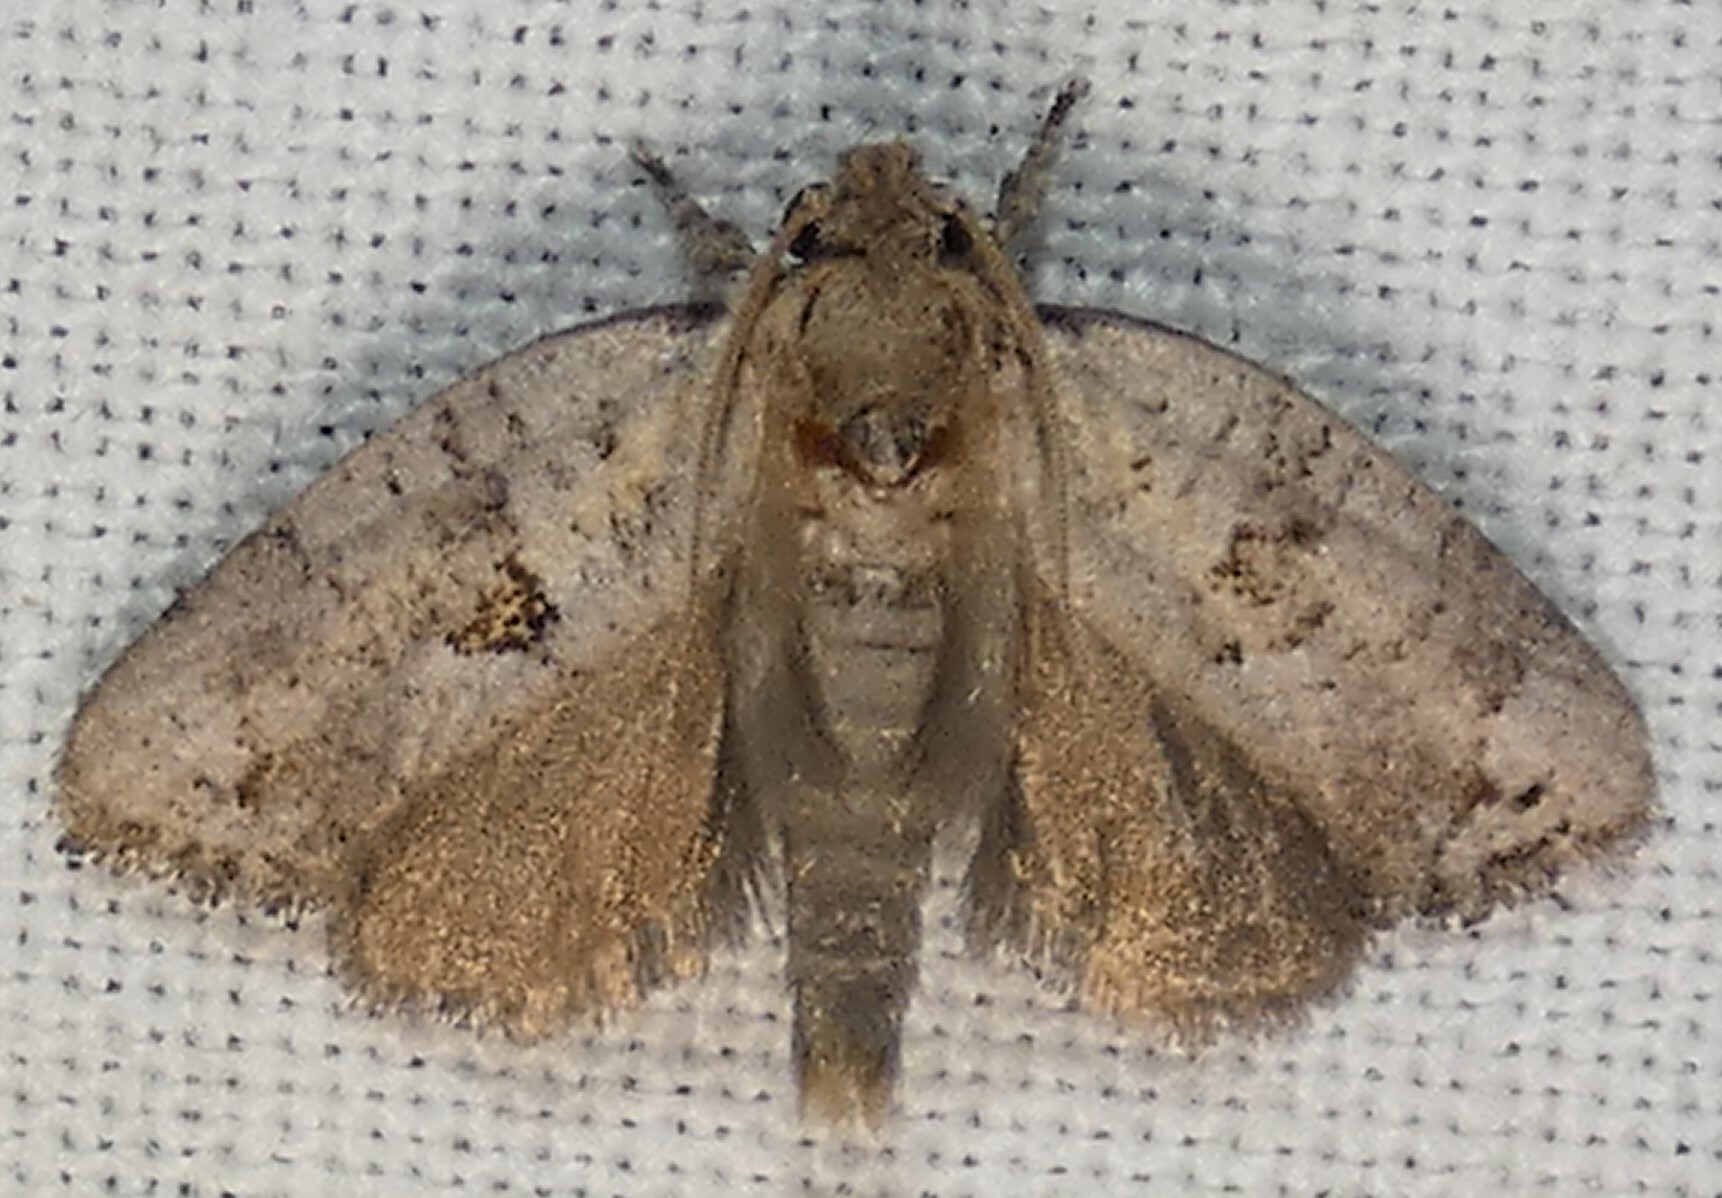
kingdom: Animalia
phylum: Arthropoda
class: Insecta
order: Lepidoptera
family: Tineidae
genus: Acrolophus
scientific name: Acrolophus piger
